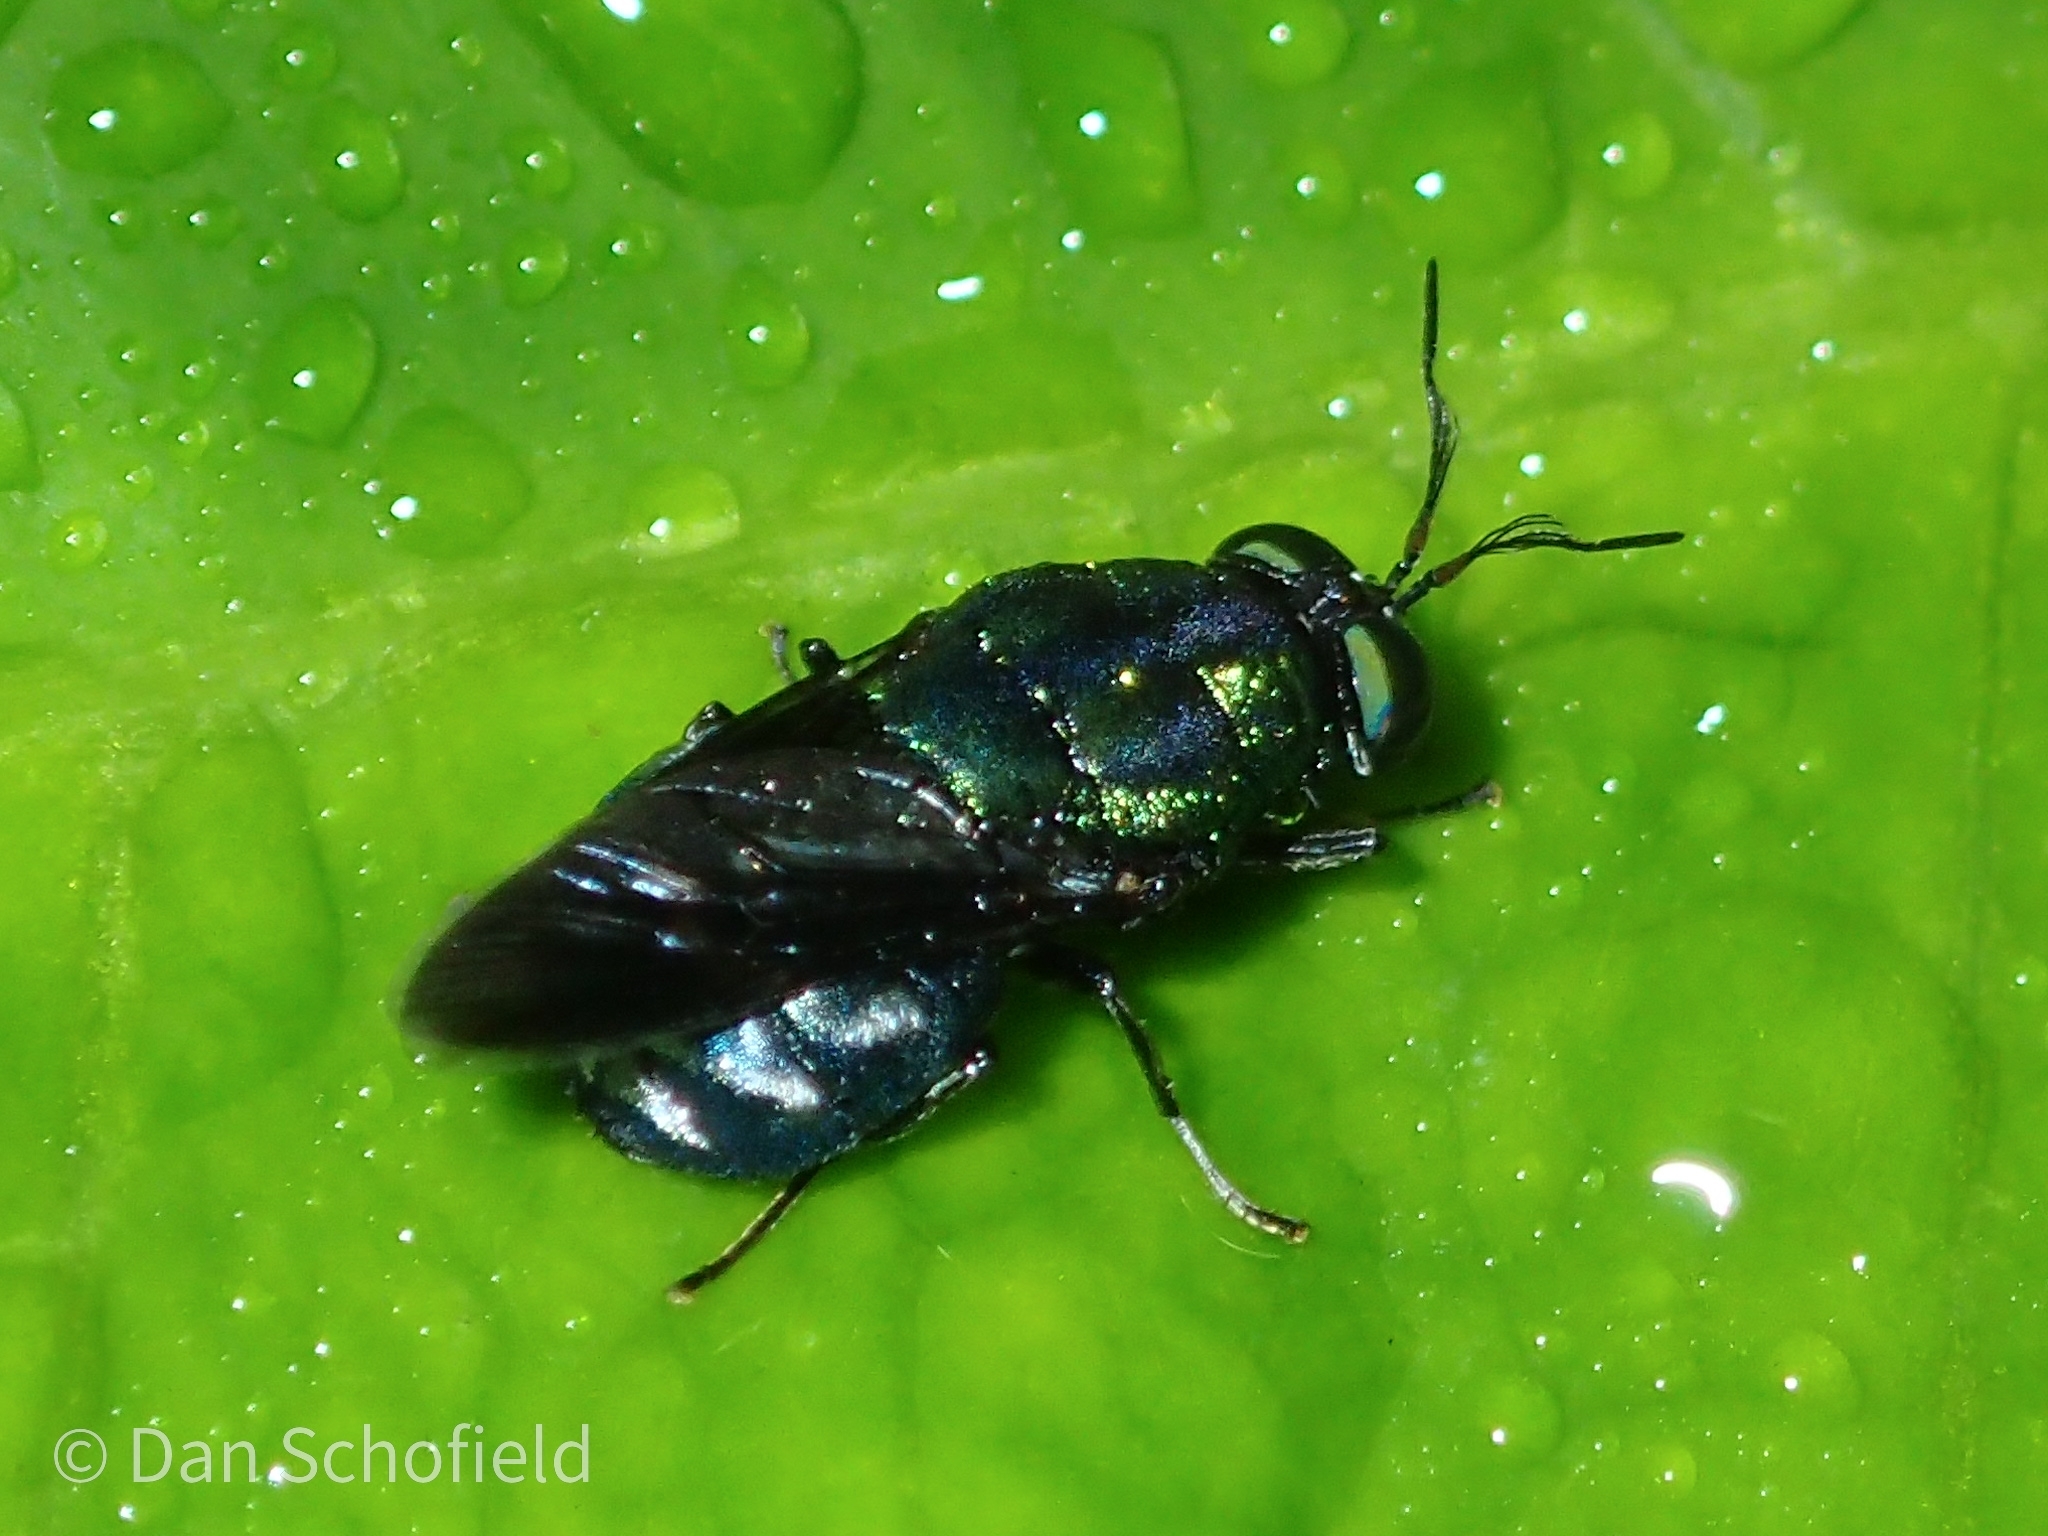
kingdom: Animalia
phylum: Arthropoda
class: Insecta
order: Diptera
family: Stratiomyidae
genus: Ptilocera
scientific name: Ptilocera continua
